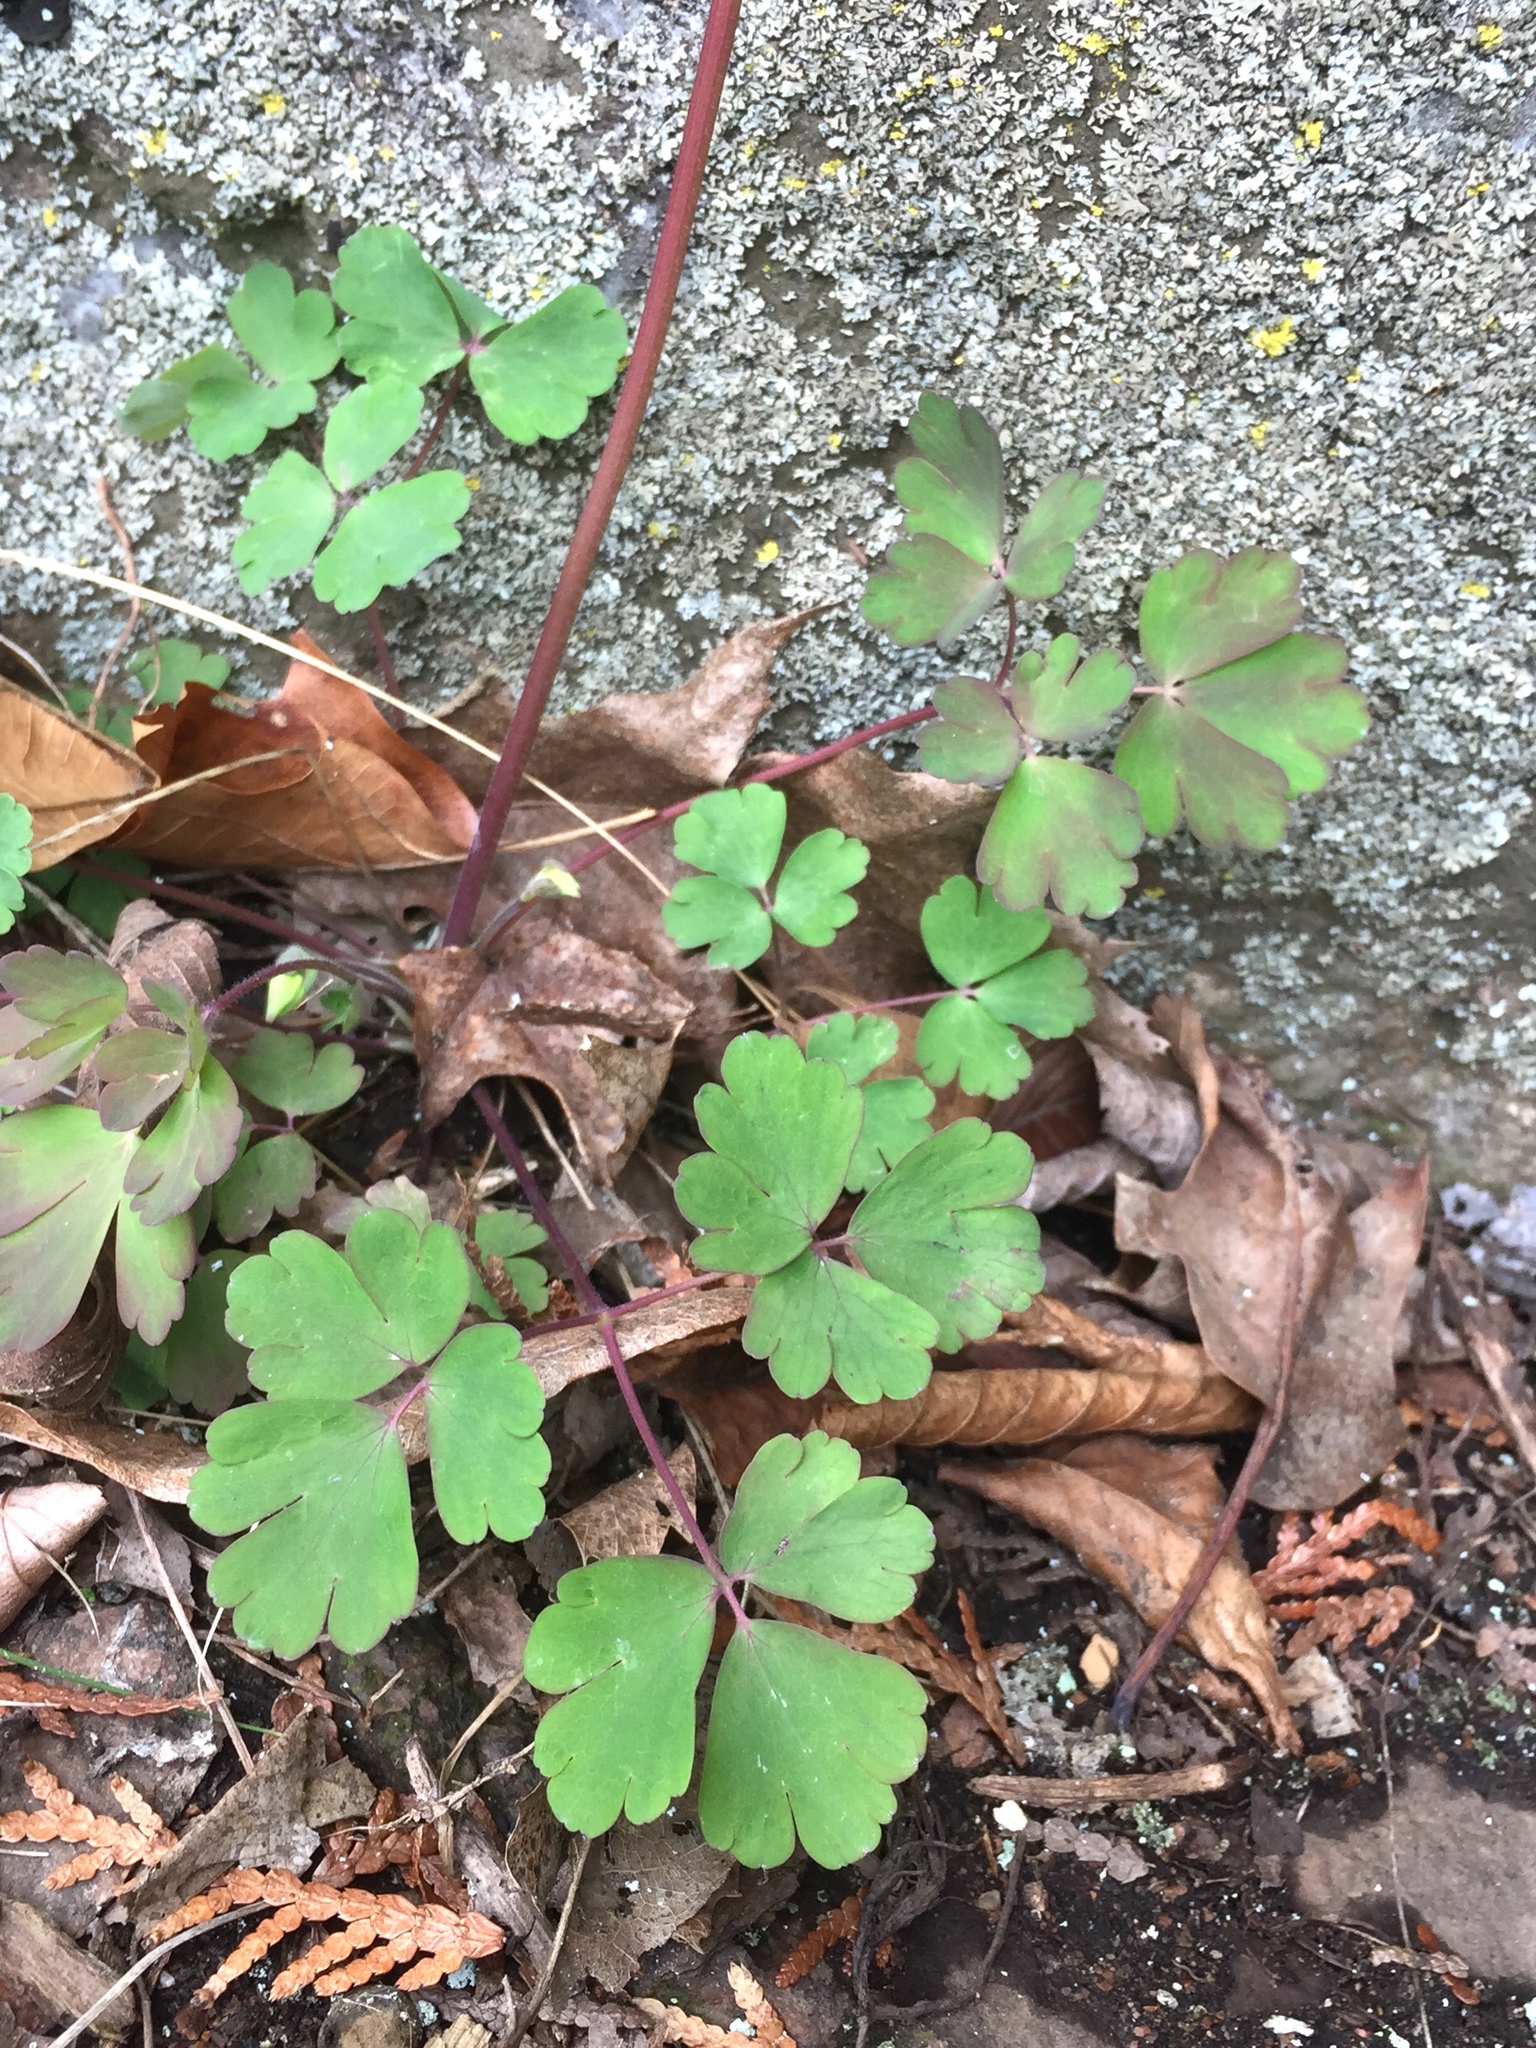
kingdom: Plantae
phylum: Tracheophyta
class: Magnoliopsida
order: Ranunculales
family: Ranunculaceae
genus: Aquilegia
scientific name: Aquilegia canadensis
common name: American columbine
